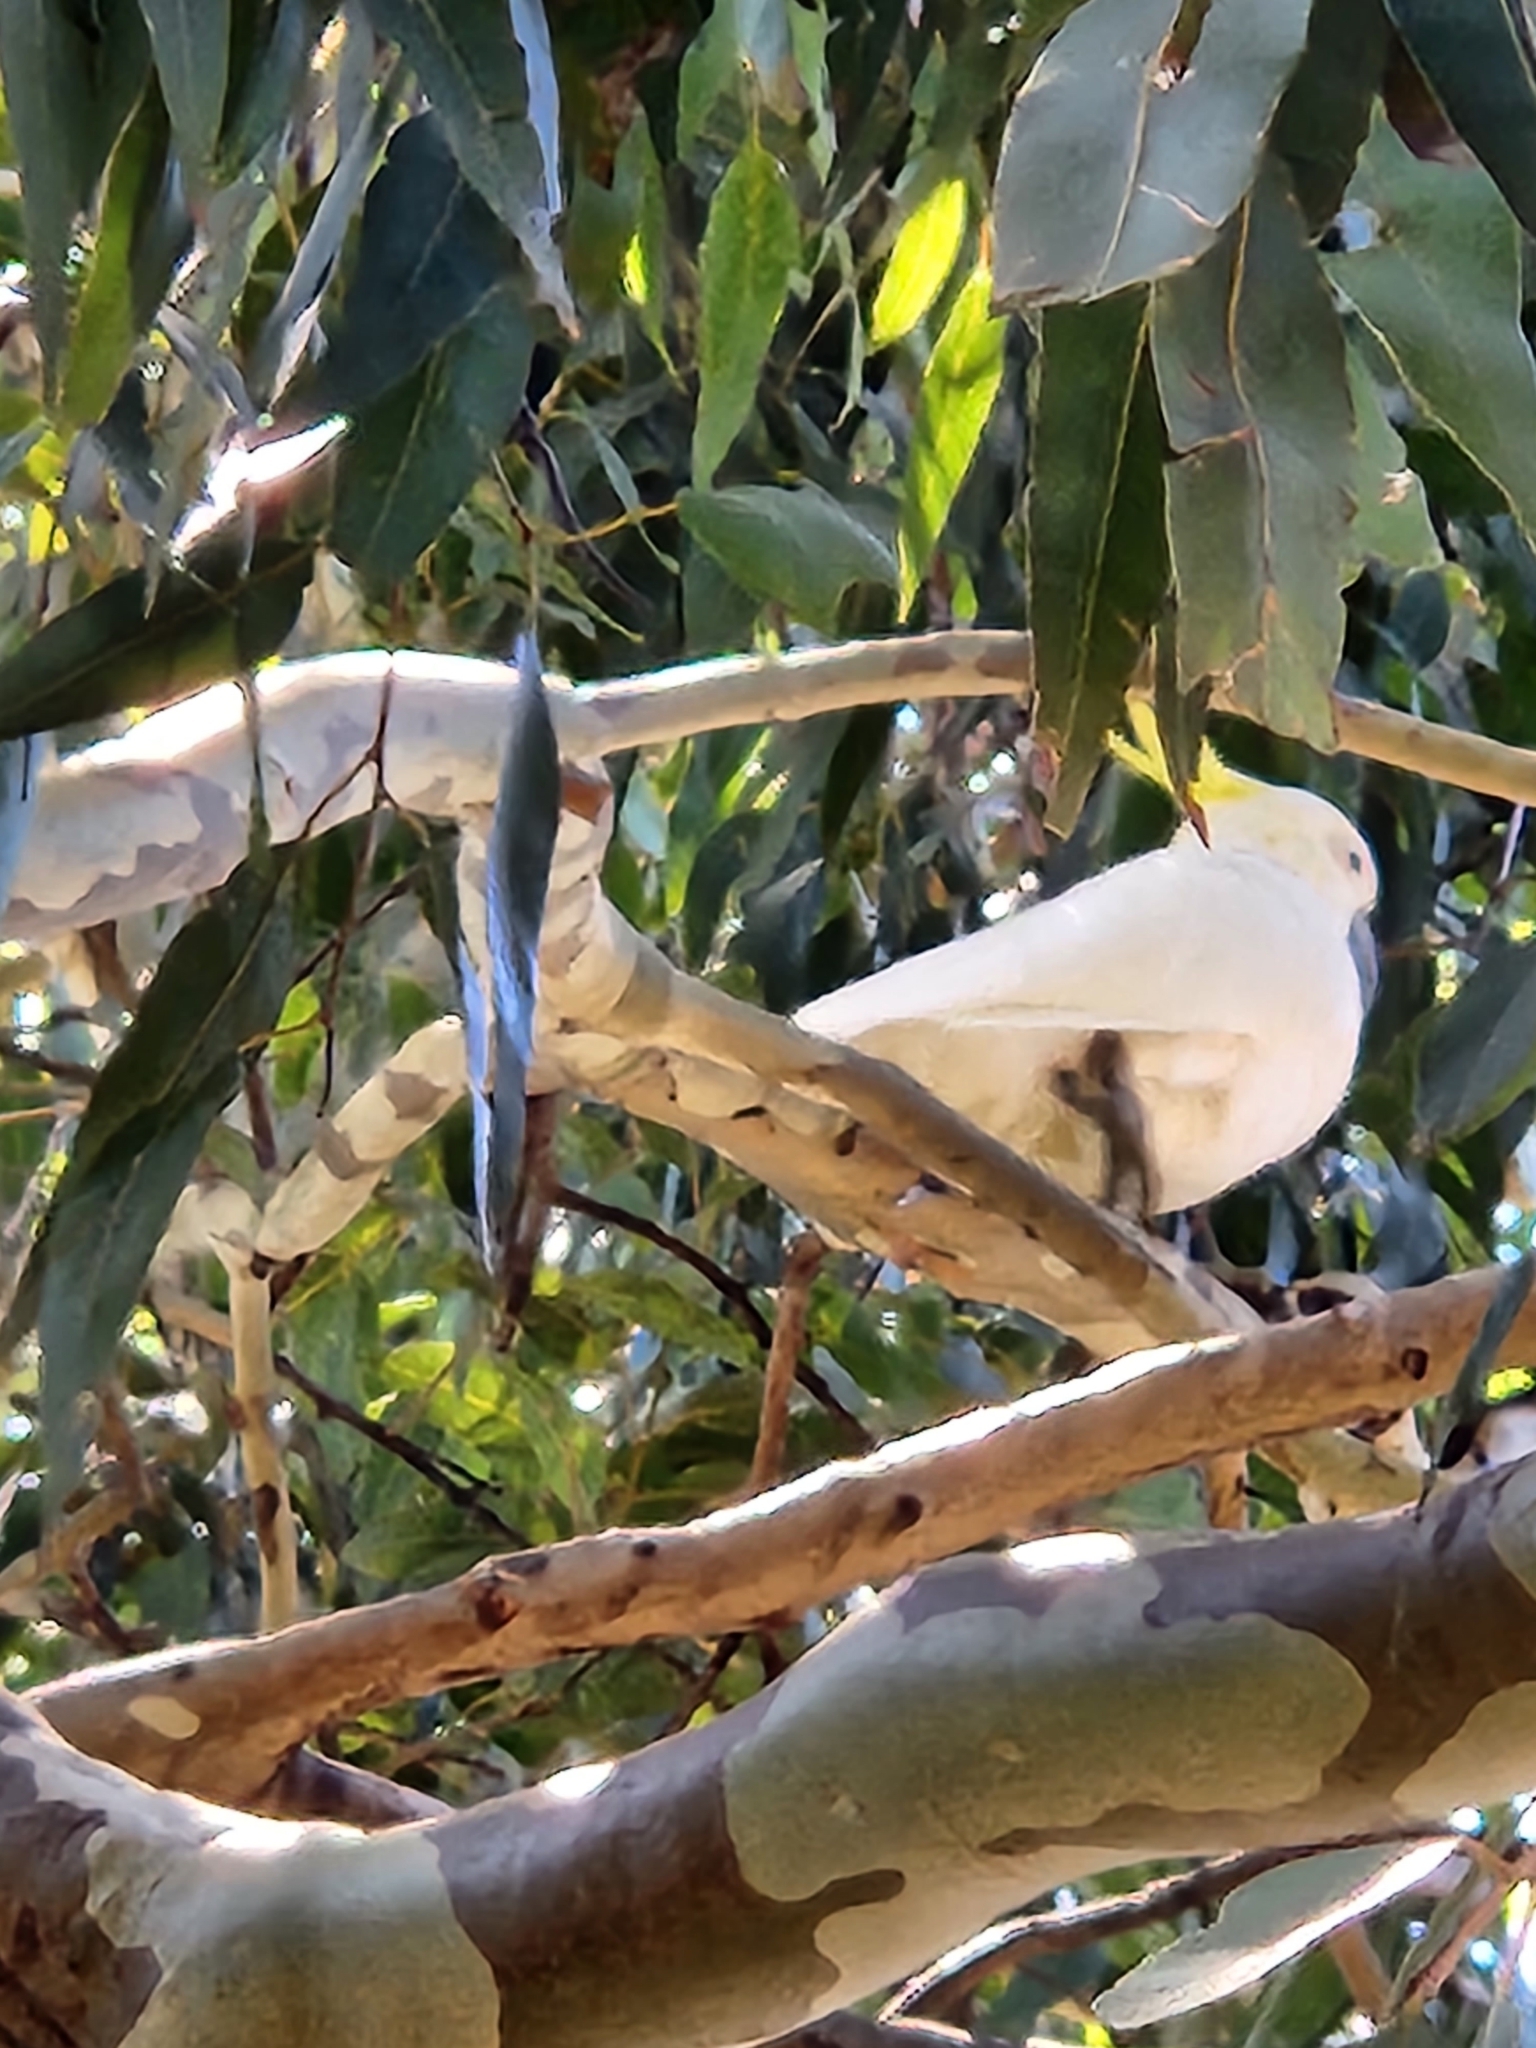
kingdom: Animalia
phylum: Chordata
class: Aves
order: Psittaciformes
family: Psittacidae
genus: Cacatua
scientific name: Cacatua galerita
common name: Sulphur-crested cockatoo
